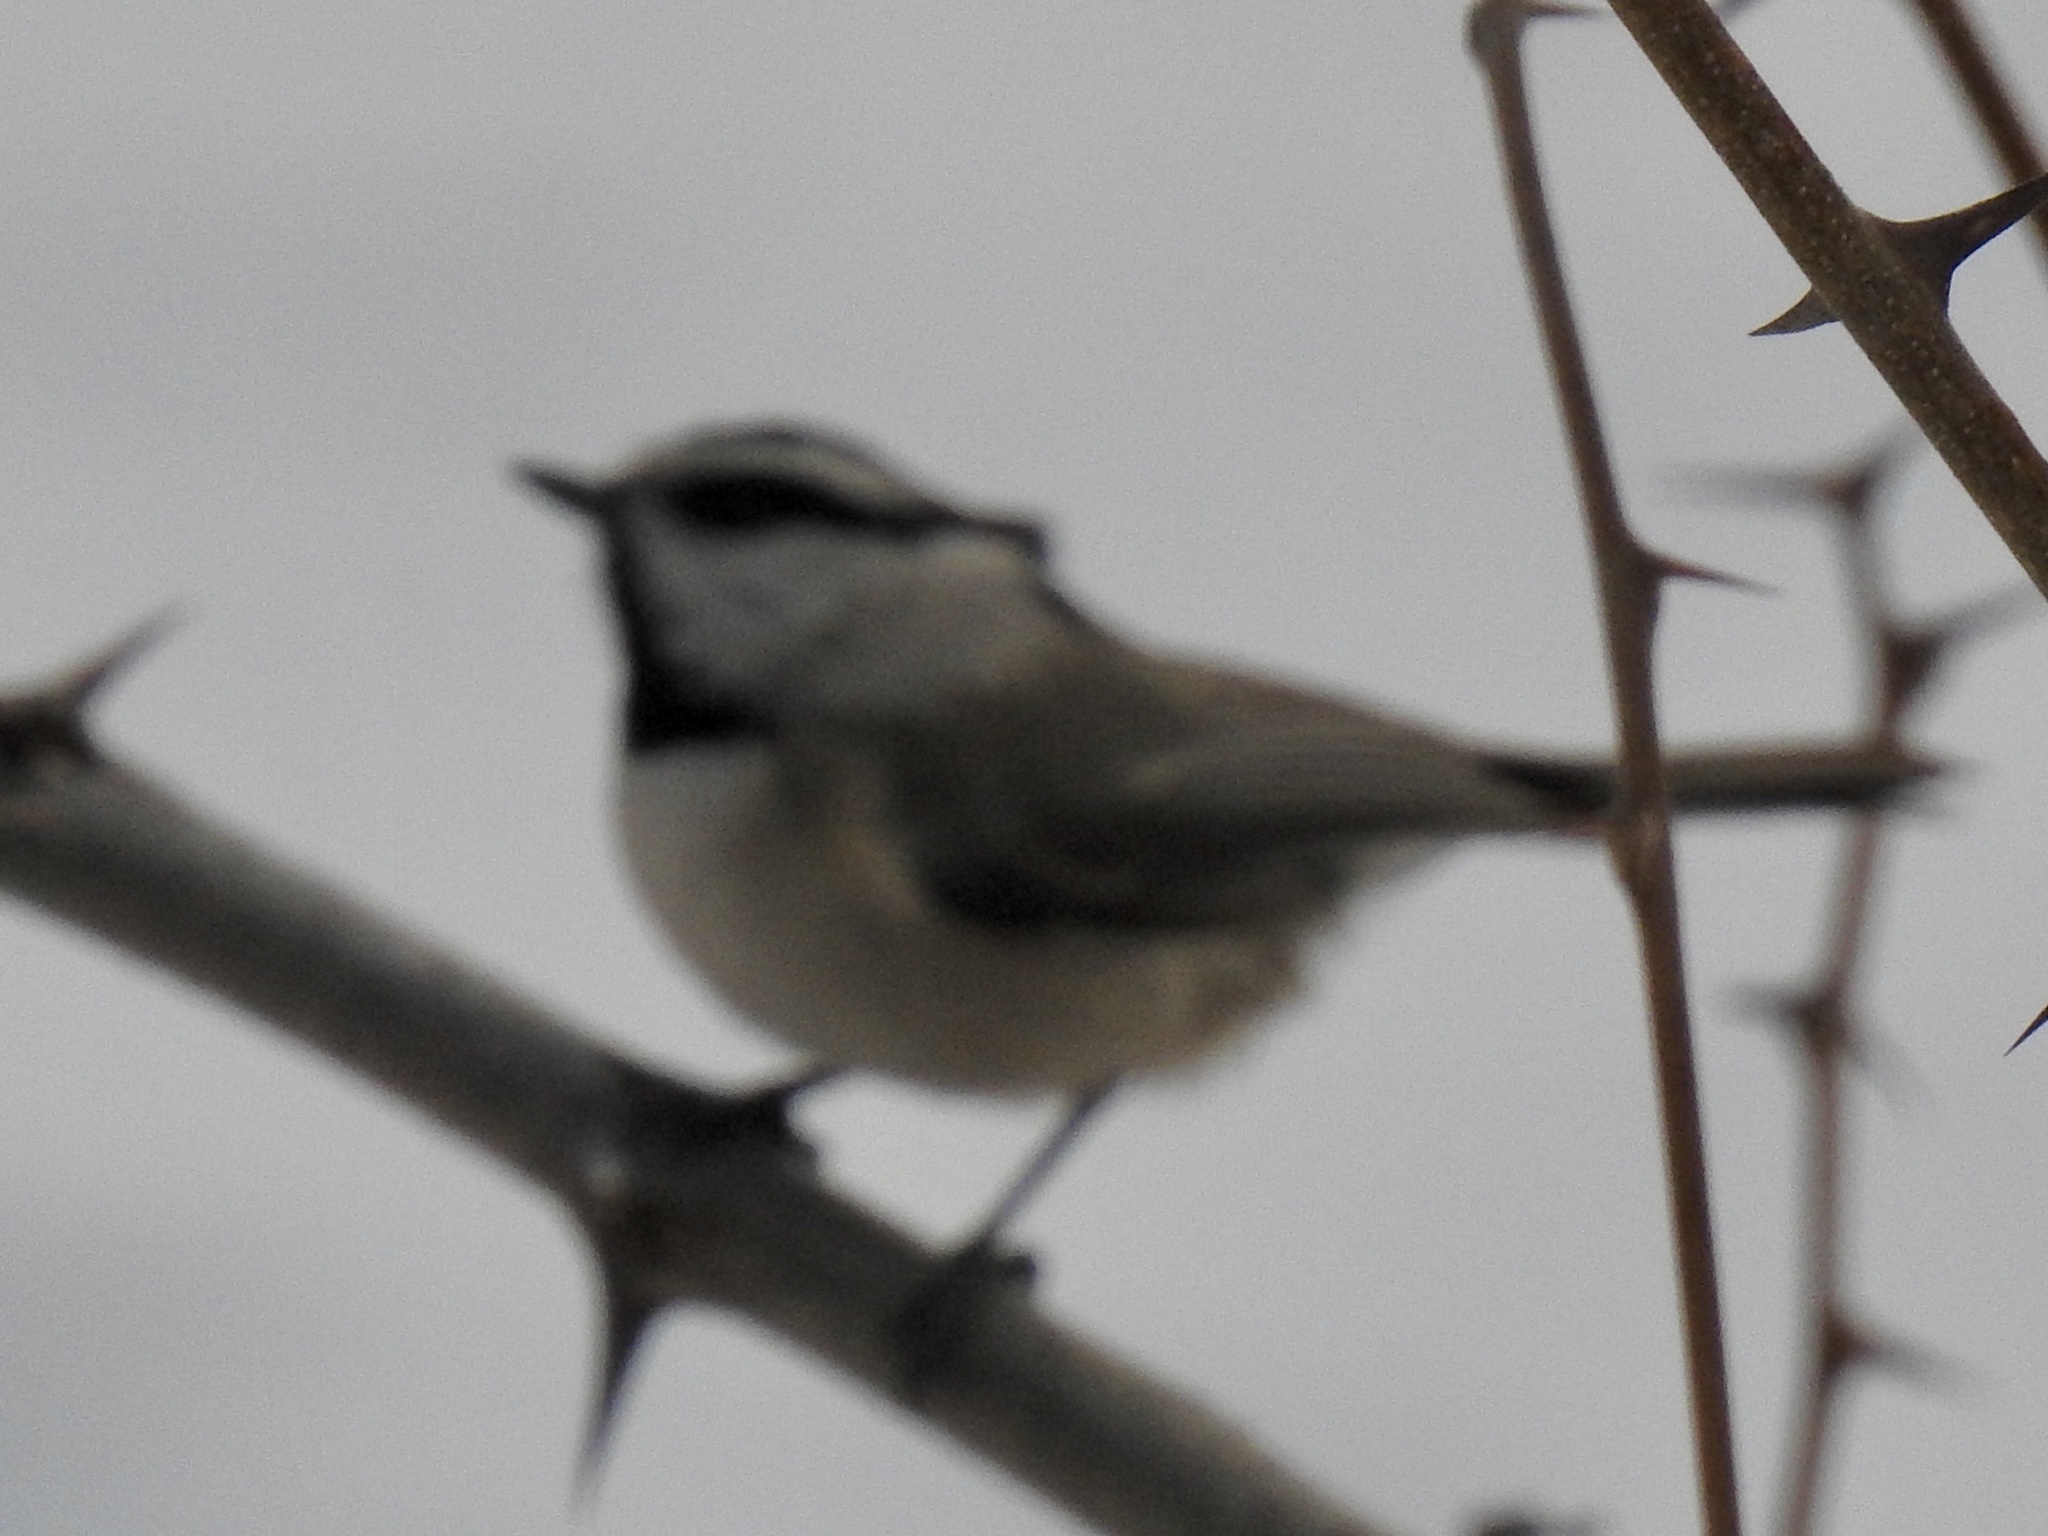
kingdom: Animalia
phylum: Chordata
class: Aves
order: Passeriformes
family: Paridae
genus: Poecile
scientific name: Poecile gambeli
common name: Mountain chickadee
